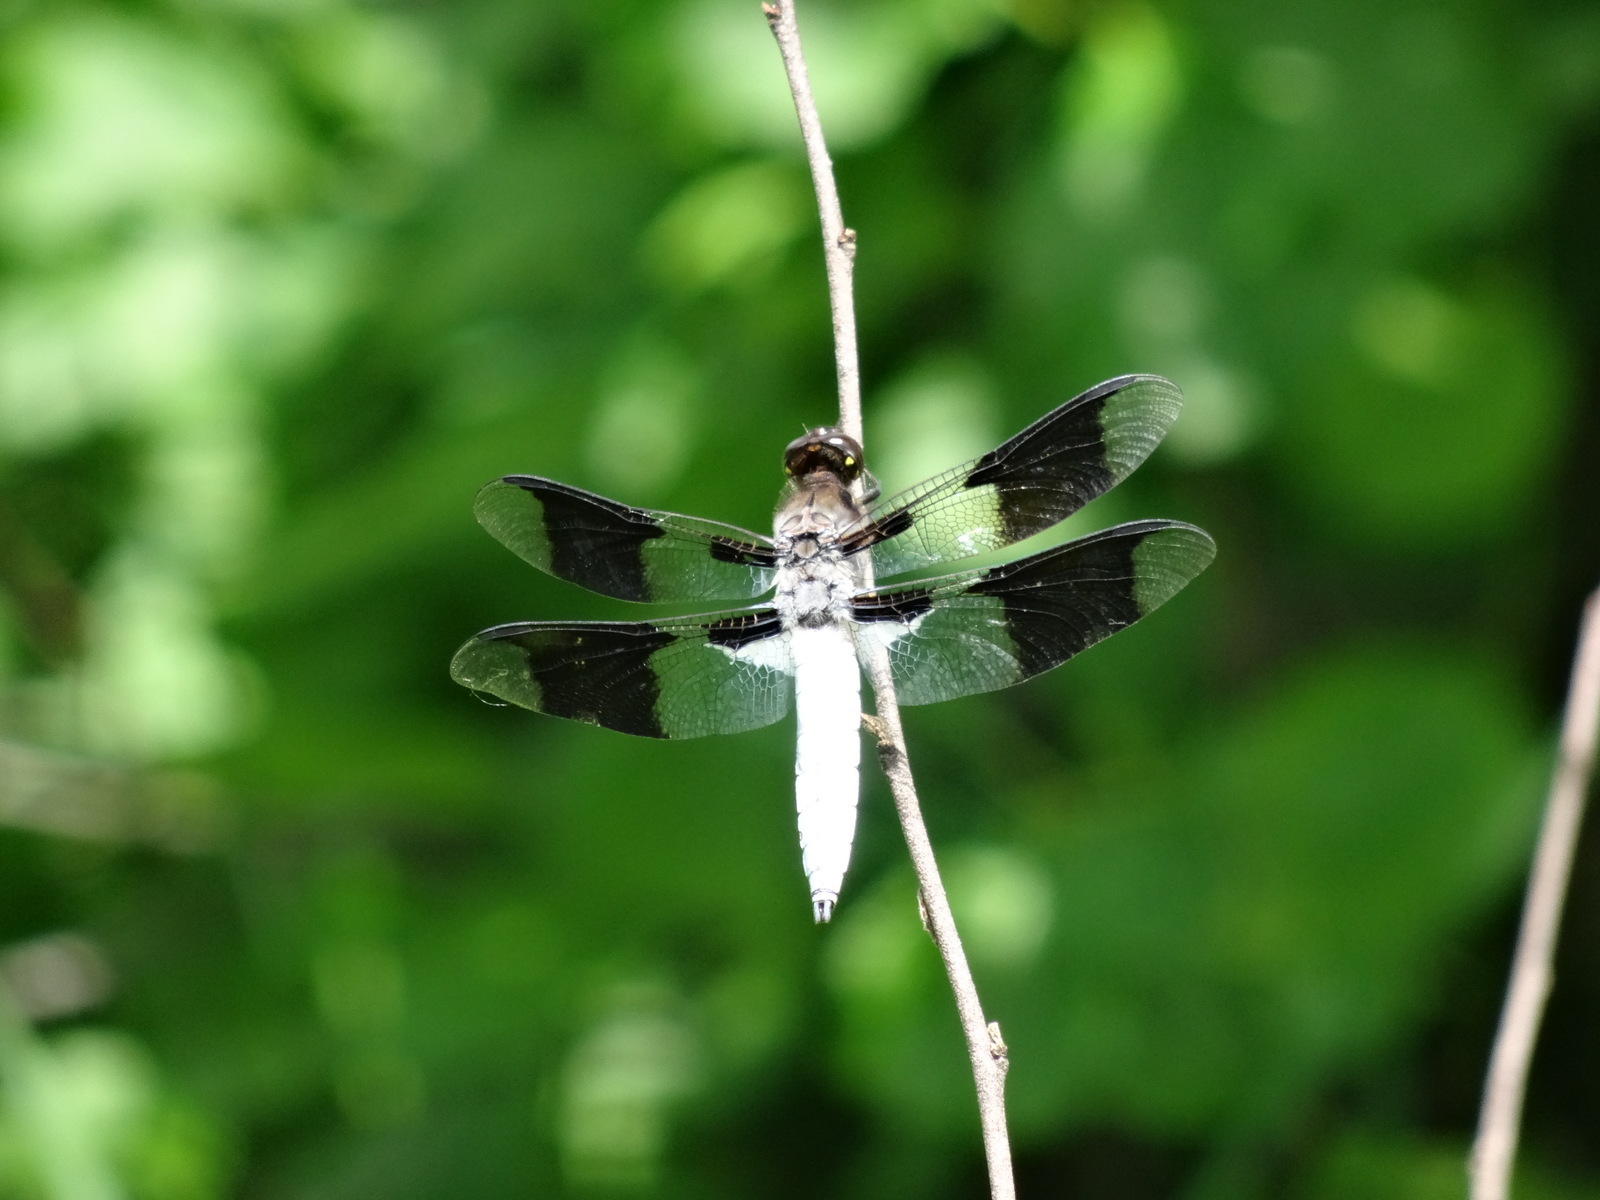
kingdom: Animalia
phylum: Arthropoda
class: Insecta
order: Odonata
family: Libellulidae
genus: Plathemis
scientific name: Plathemis lydia
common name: Common whitetail
